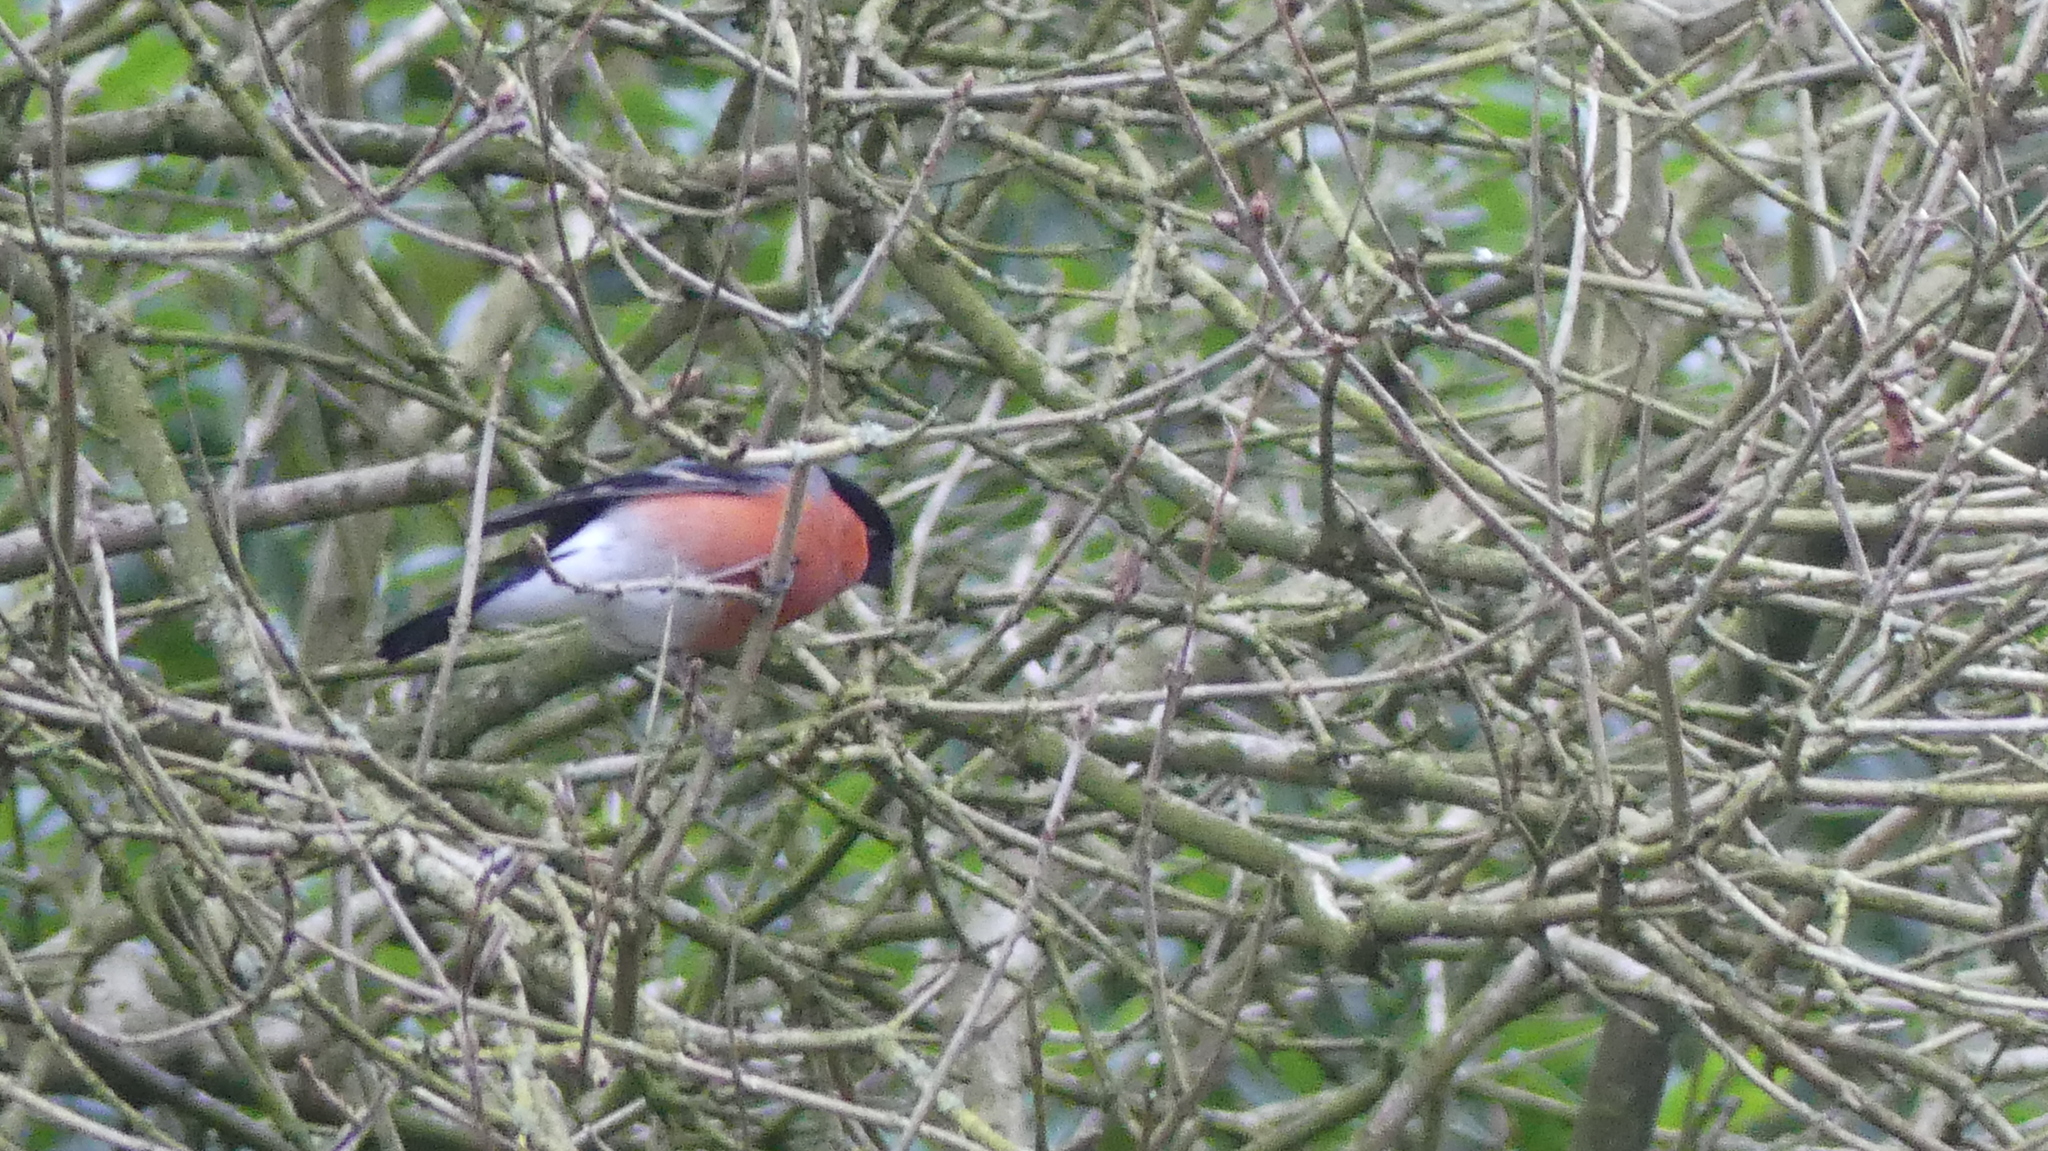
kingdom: Animalia
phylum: Chordata
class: Aves
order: Passeriformes
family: Fringillidae
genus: Pyrrhula
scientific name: Pyrrhula pyrrhula
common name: Eurasian bullfinch
